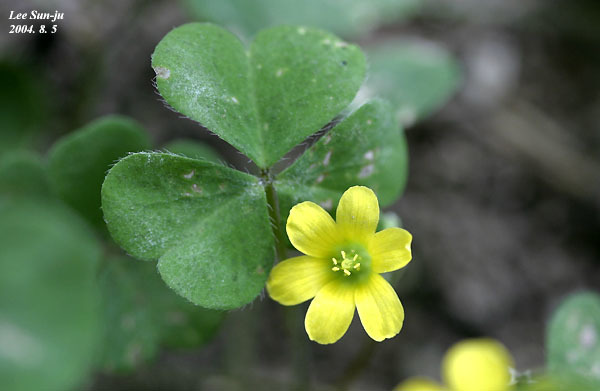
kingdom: Plantae
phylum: Tracheophyta
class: Magnoliopsida
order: Oxalidales
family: Oxalidaceae
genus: Oxalis
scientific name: Oxalis corniculata
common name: Procumbent yellow-sorrel
